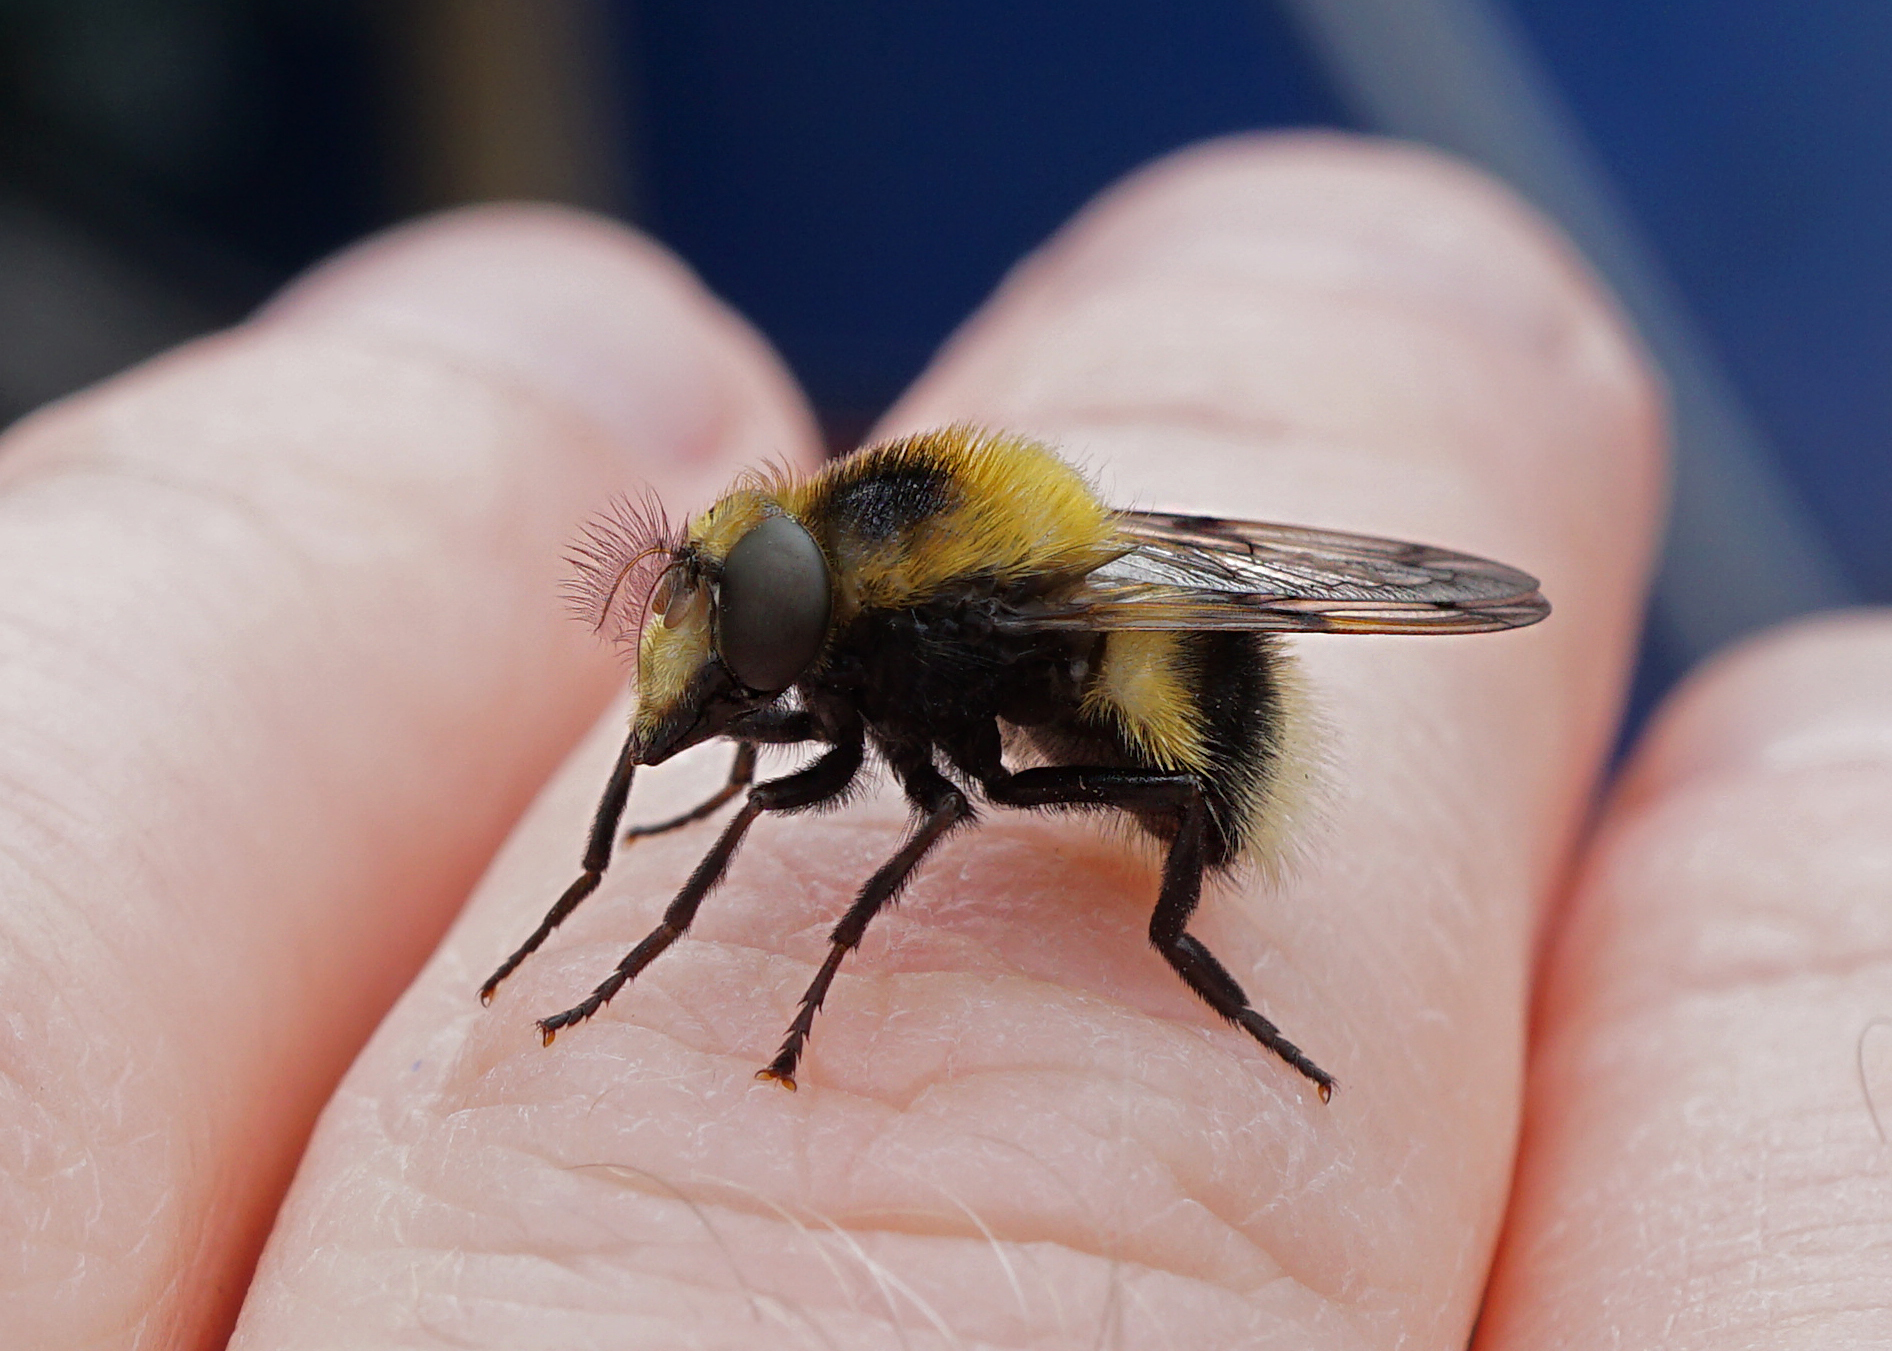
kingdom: Animalia
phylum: Arthropoda
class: Insecta
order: Diptera
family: Syrphidae
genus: Volucella
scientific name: Volucella bombylans
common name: Bumble bee hover fly
